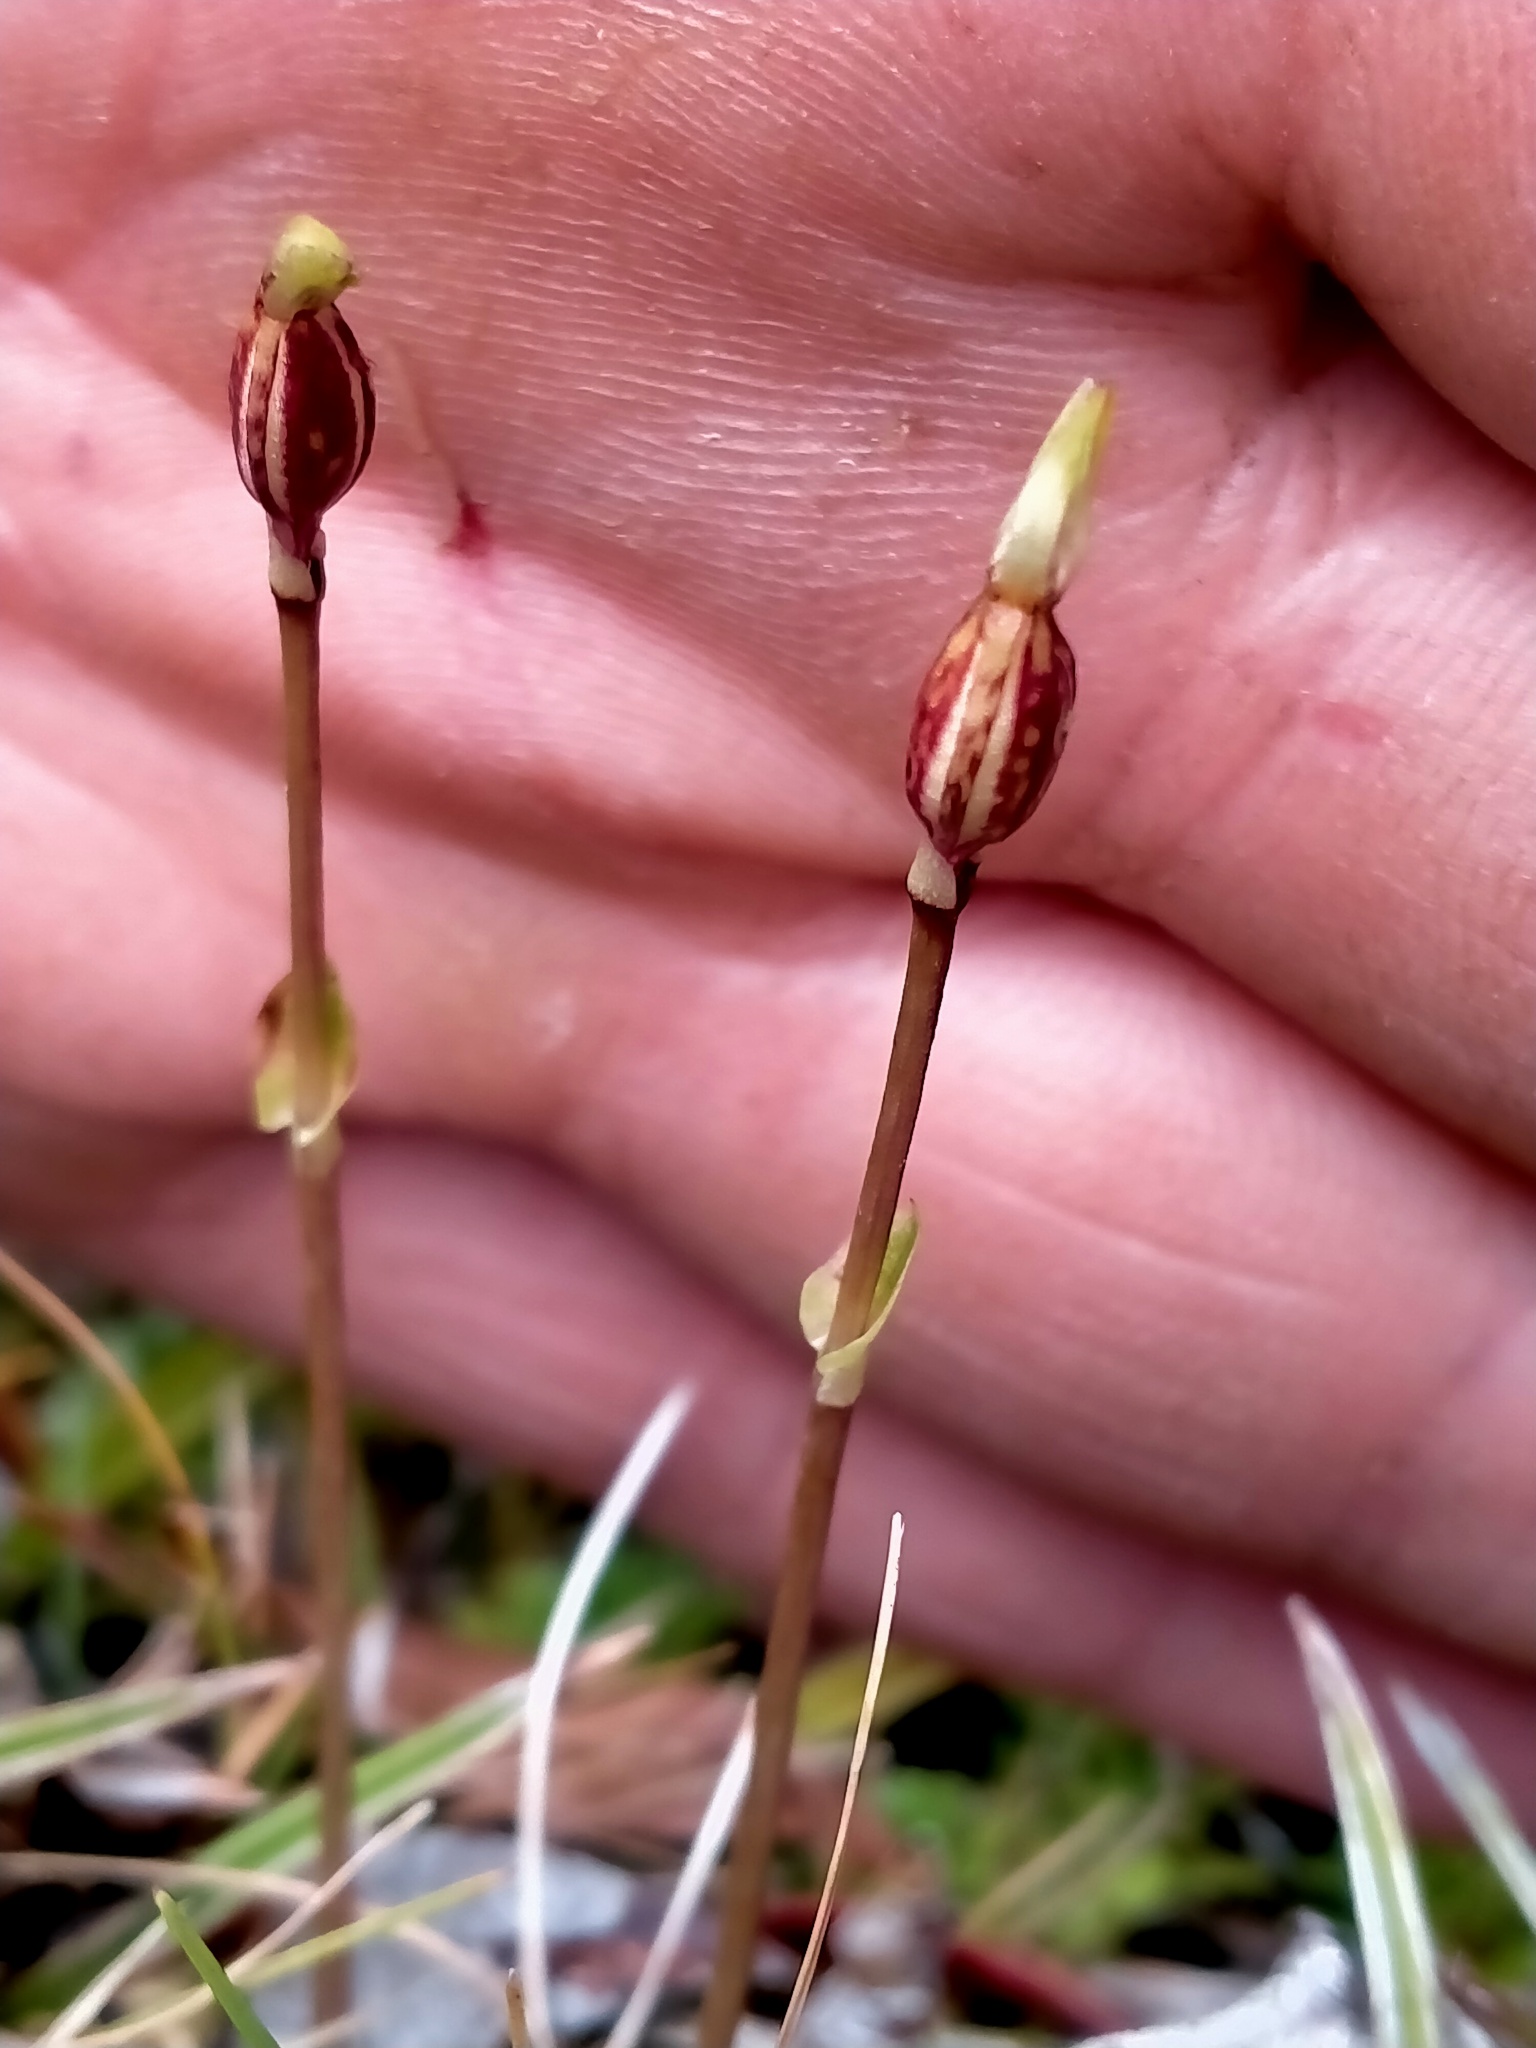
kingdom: Plantae
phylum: Tracheophyta
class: Liliopsida
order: Asparagales
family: Orchidaceae
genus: Aporostylis
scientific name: Aporostylis bifolia
